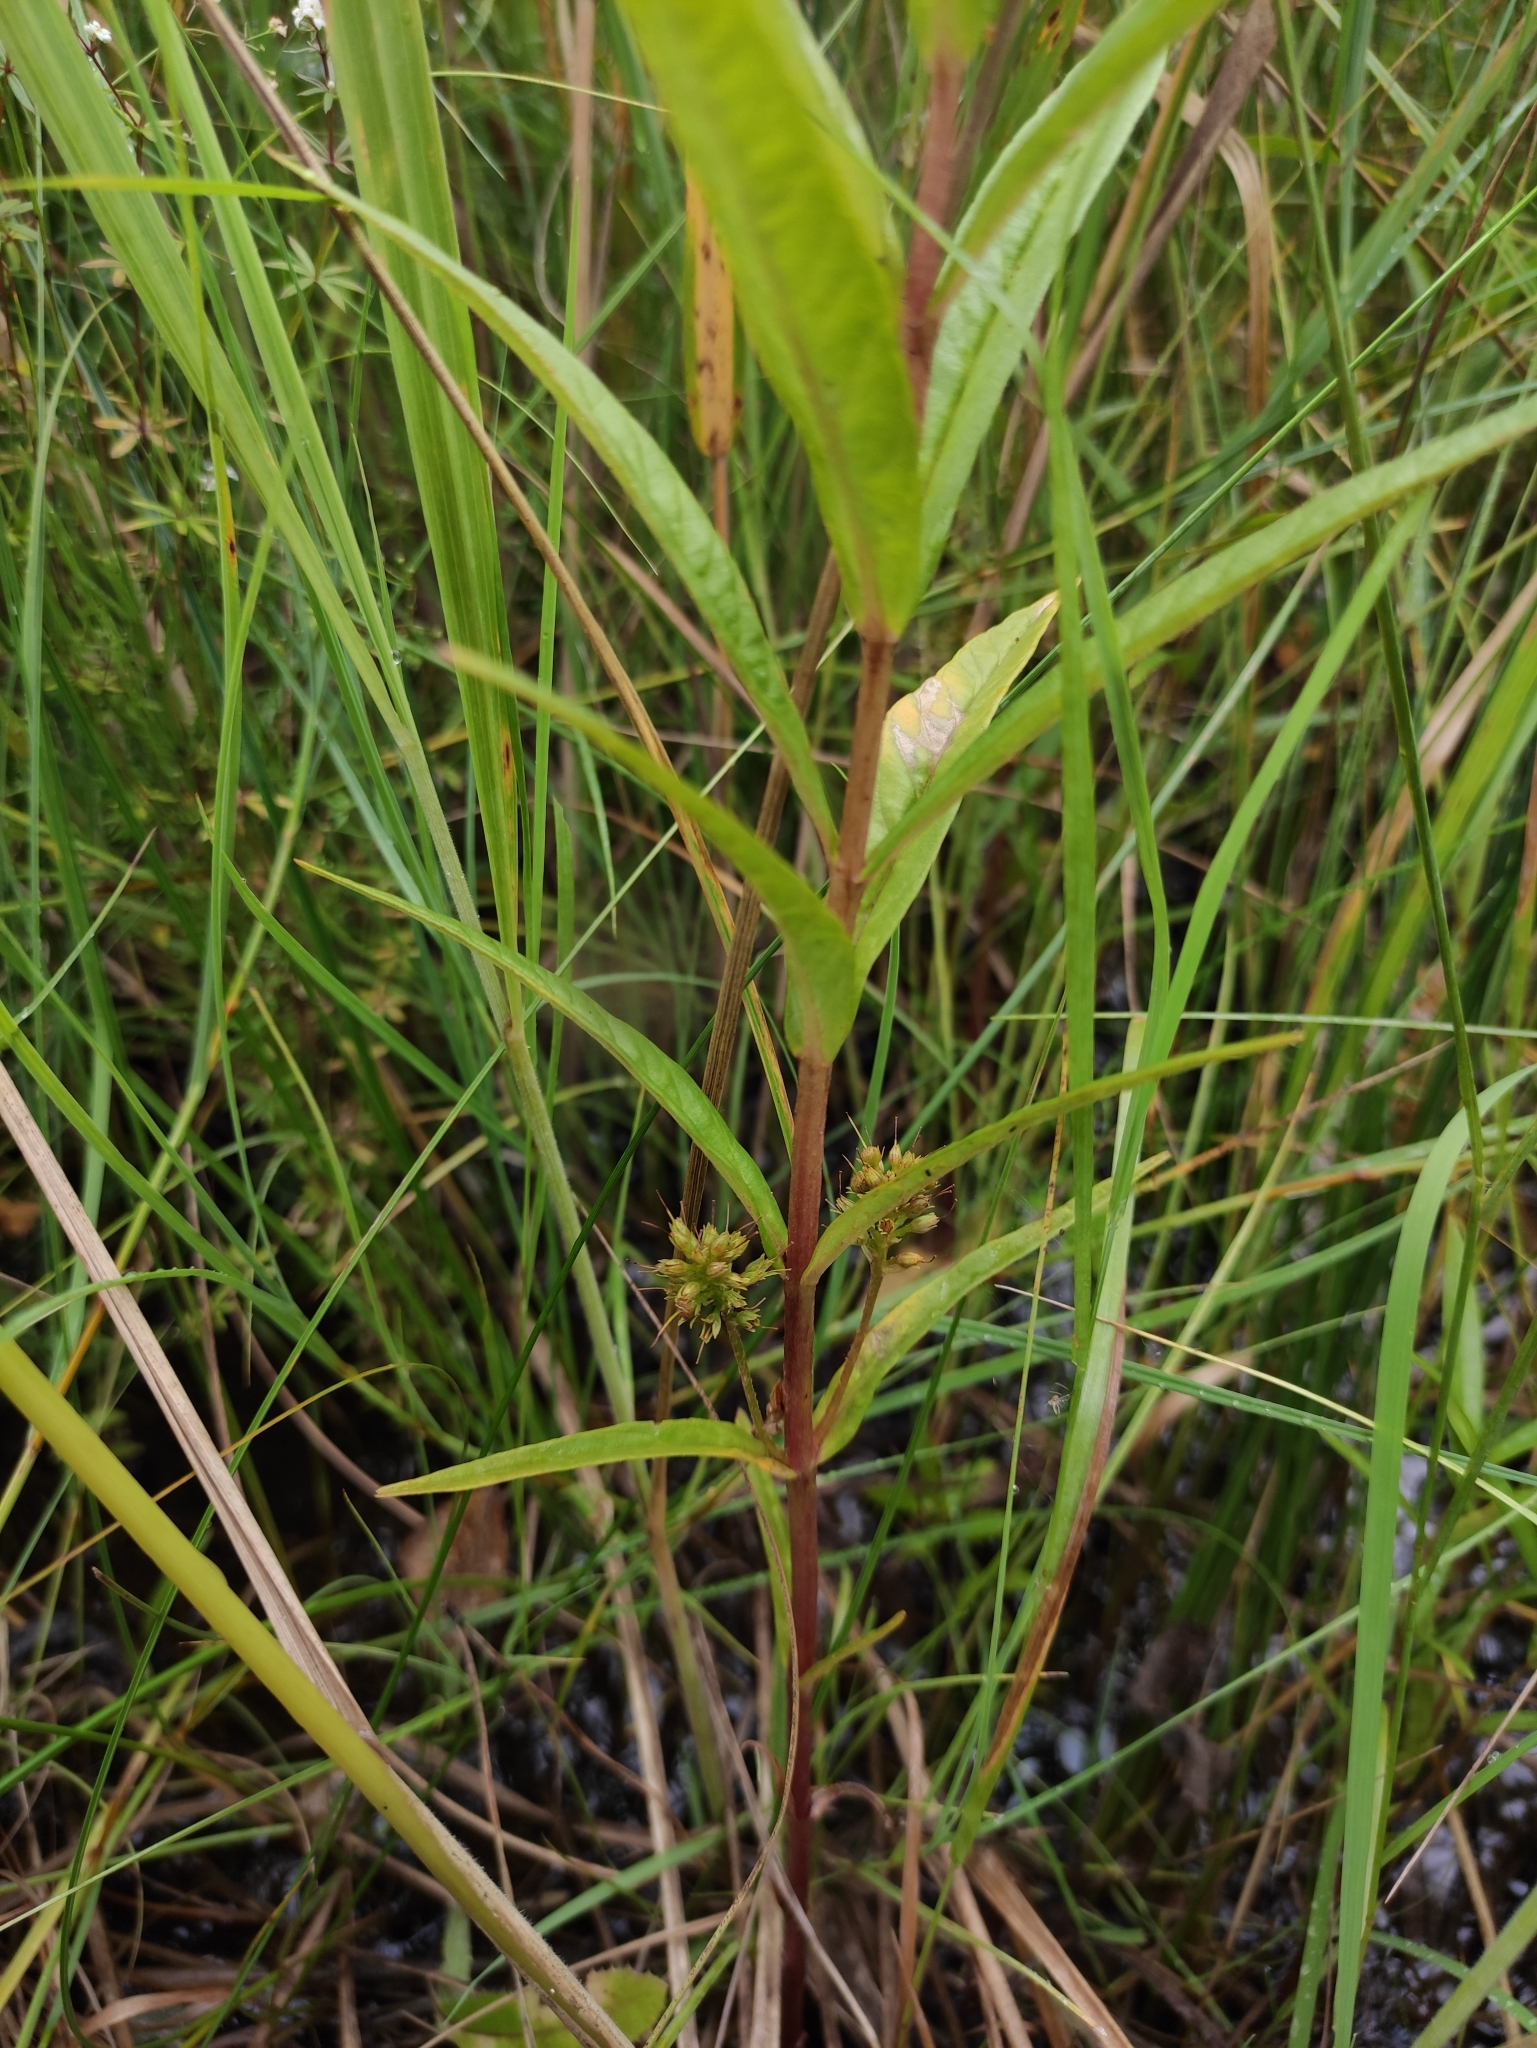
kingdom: Plantae
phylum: Tracheophyta
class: Magnoliopsida
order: Ericales
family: Primulaceae
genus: Lysimachia
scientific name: Lysimachia thyrsiflora
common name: Tufted loosestrife
